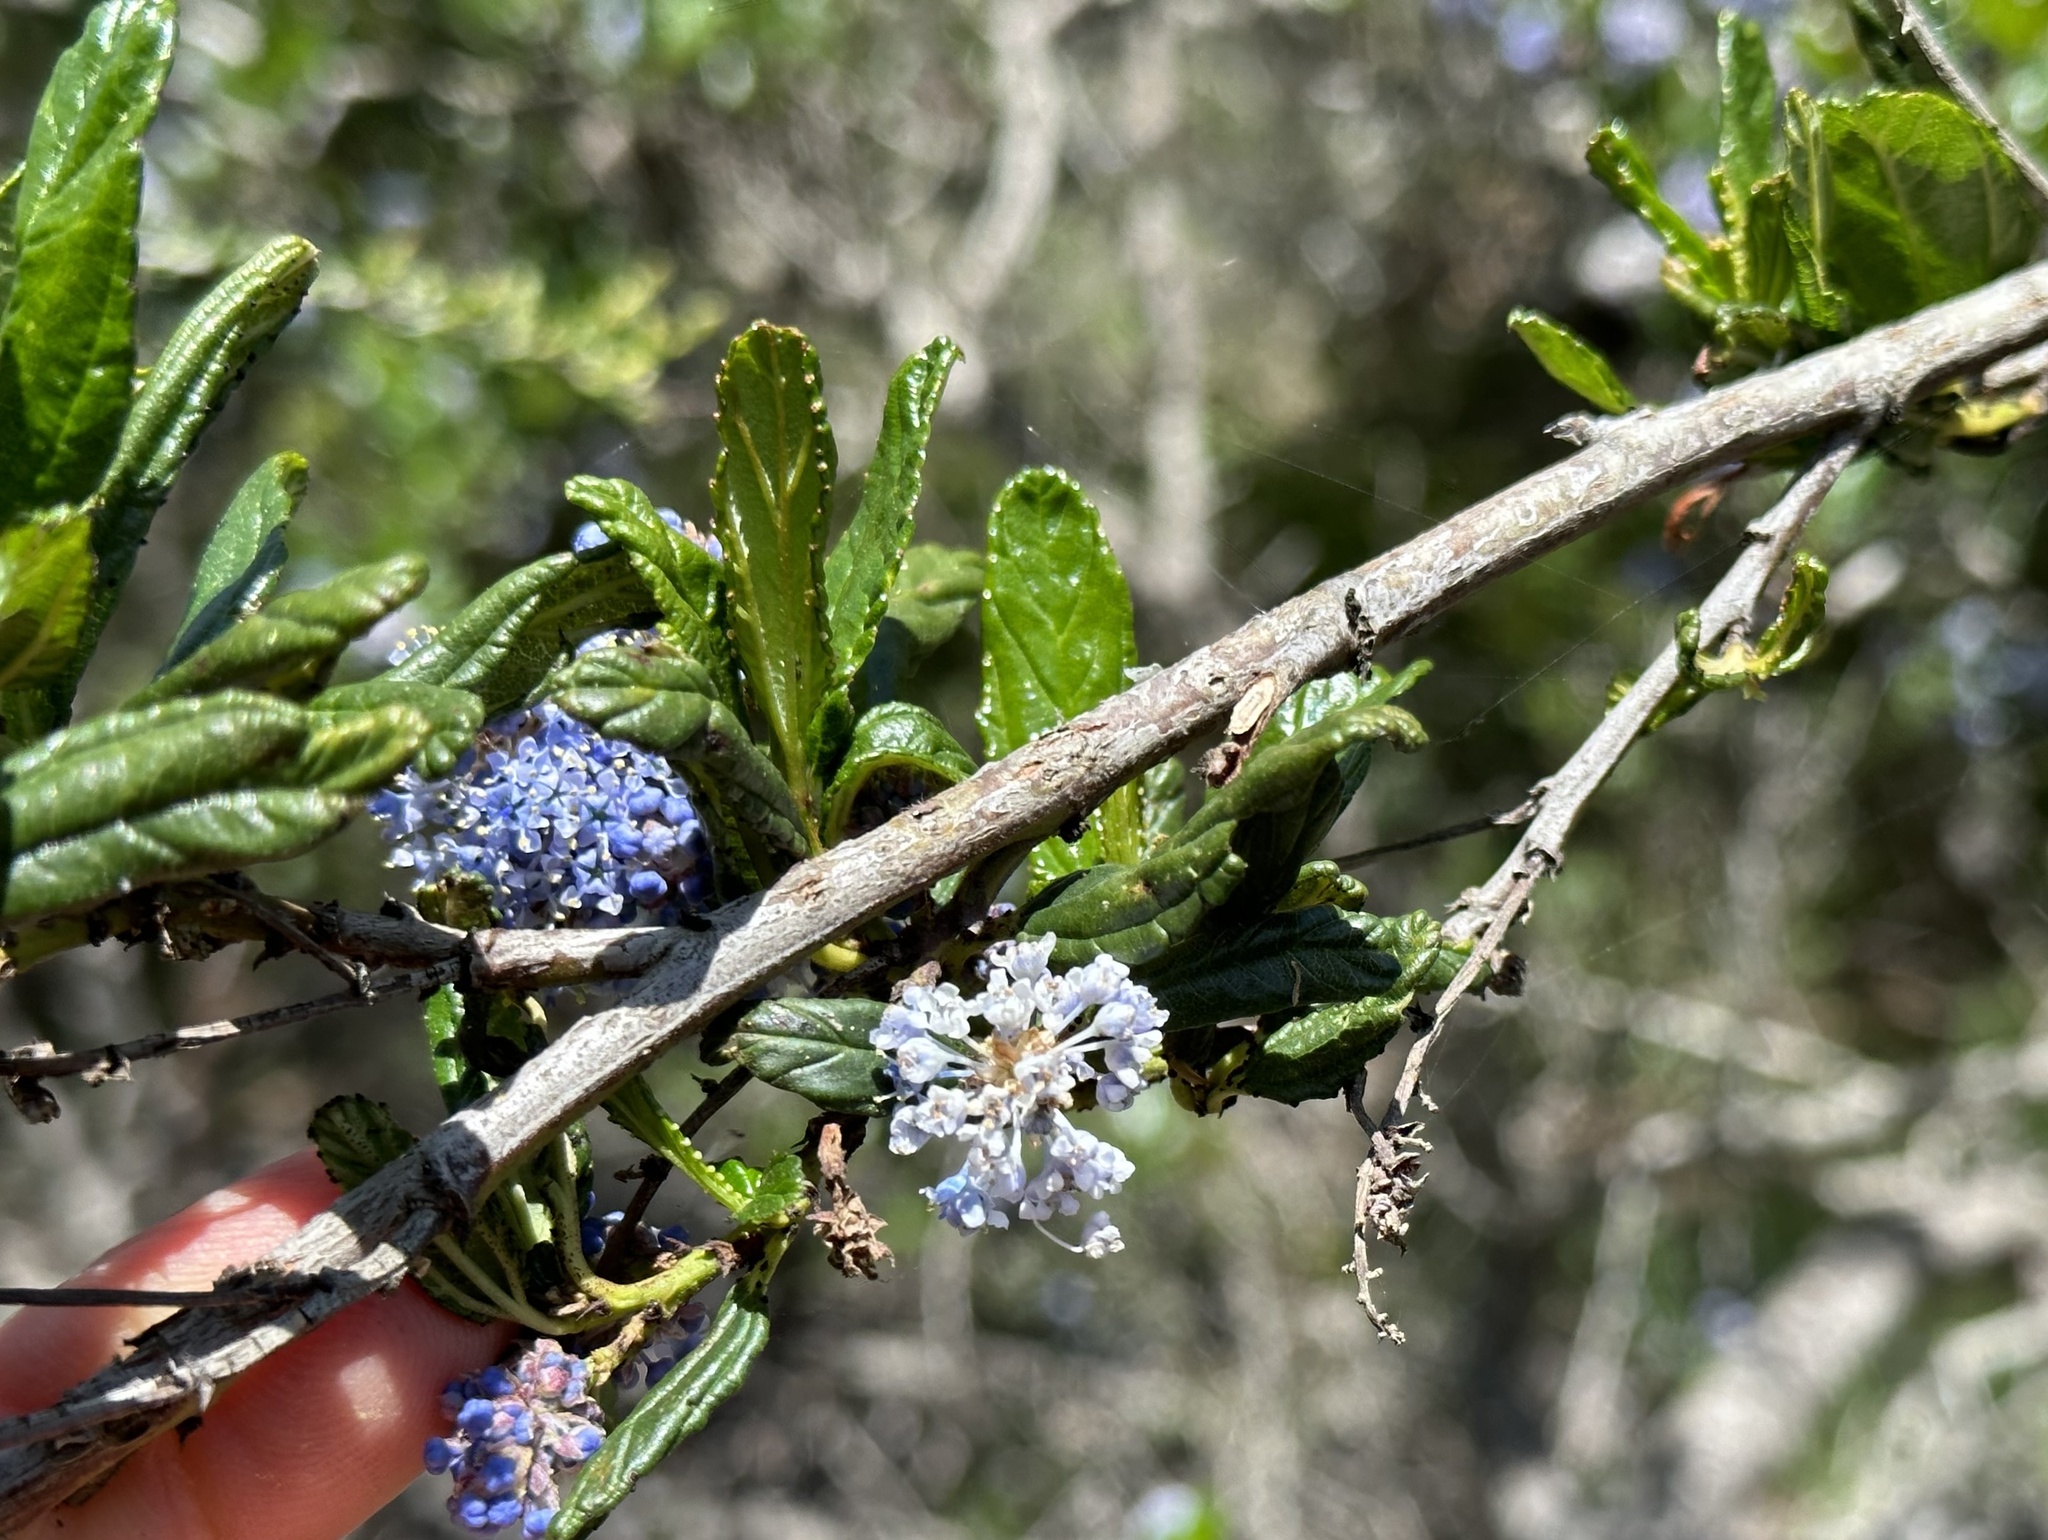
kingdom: Plantae
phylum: Tracheophyta
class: Magnoliopsida
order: Rosales
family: Rhamnaceae
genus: Ceanothus
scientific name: Ceanothus thyrsiflorus
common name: California-lilac
